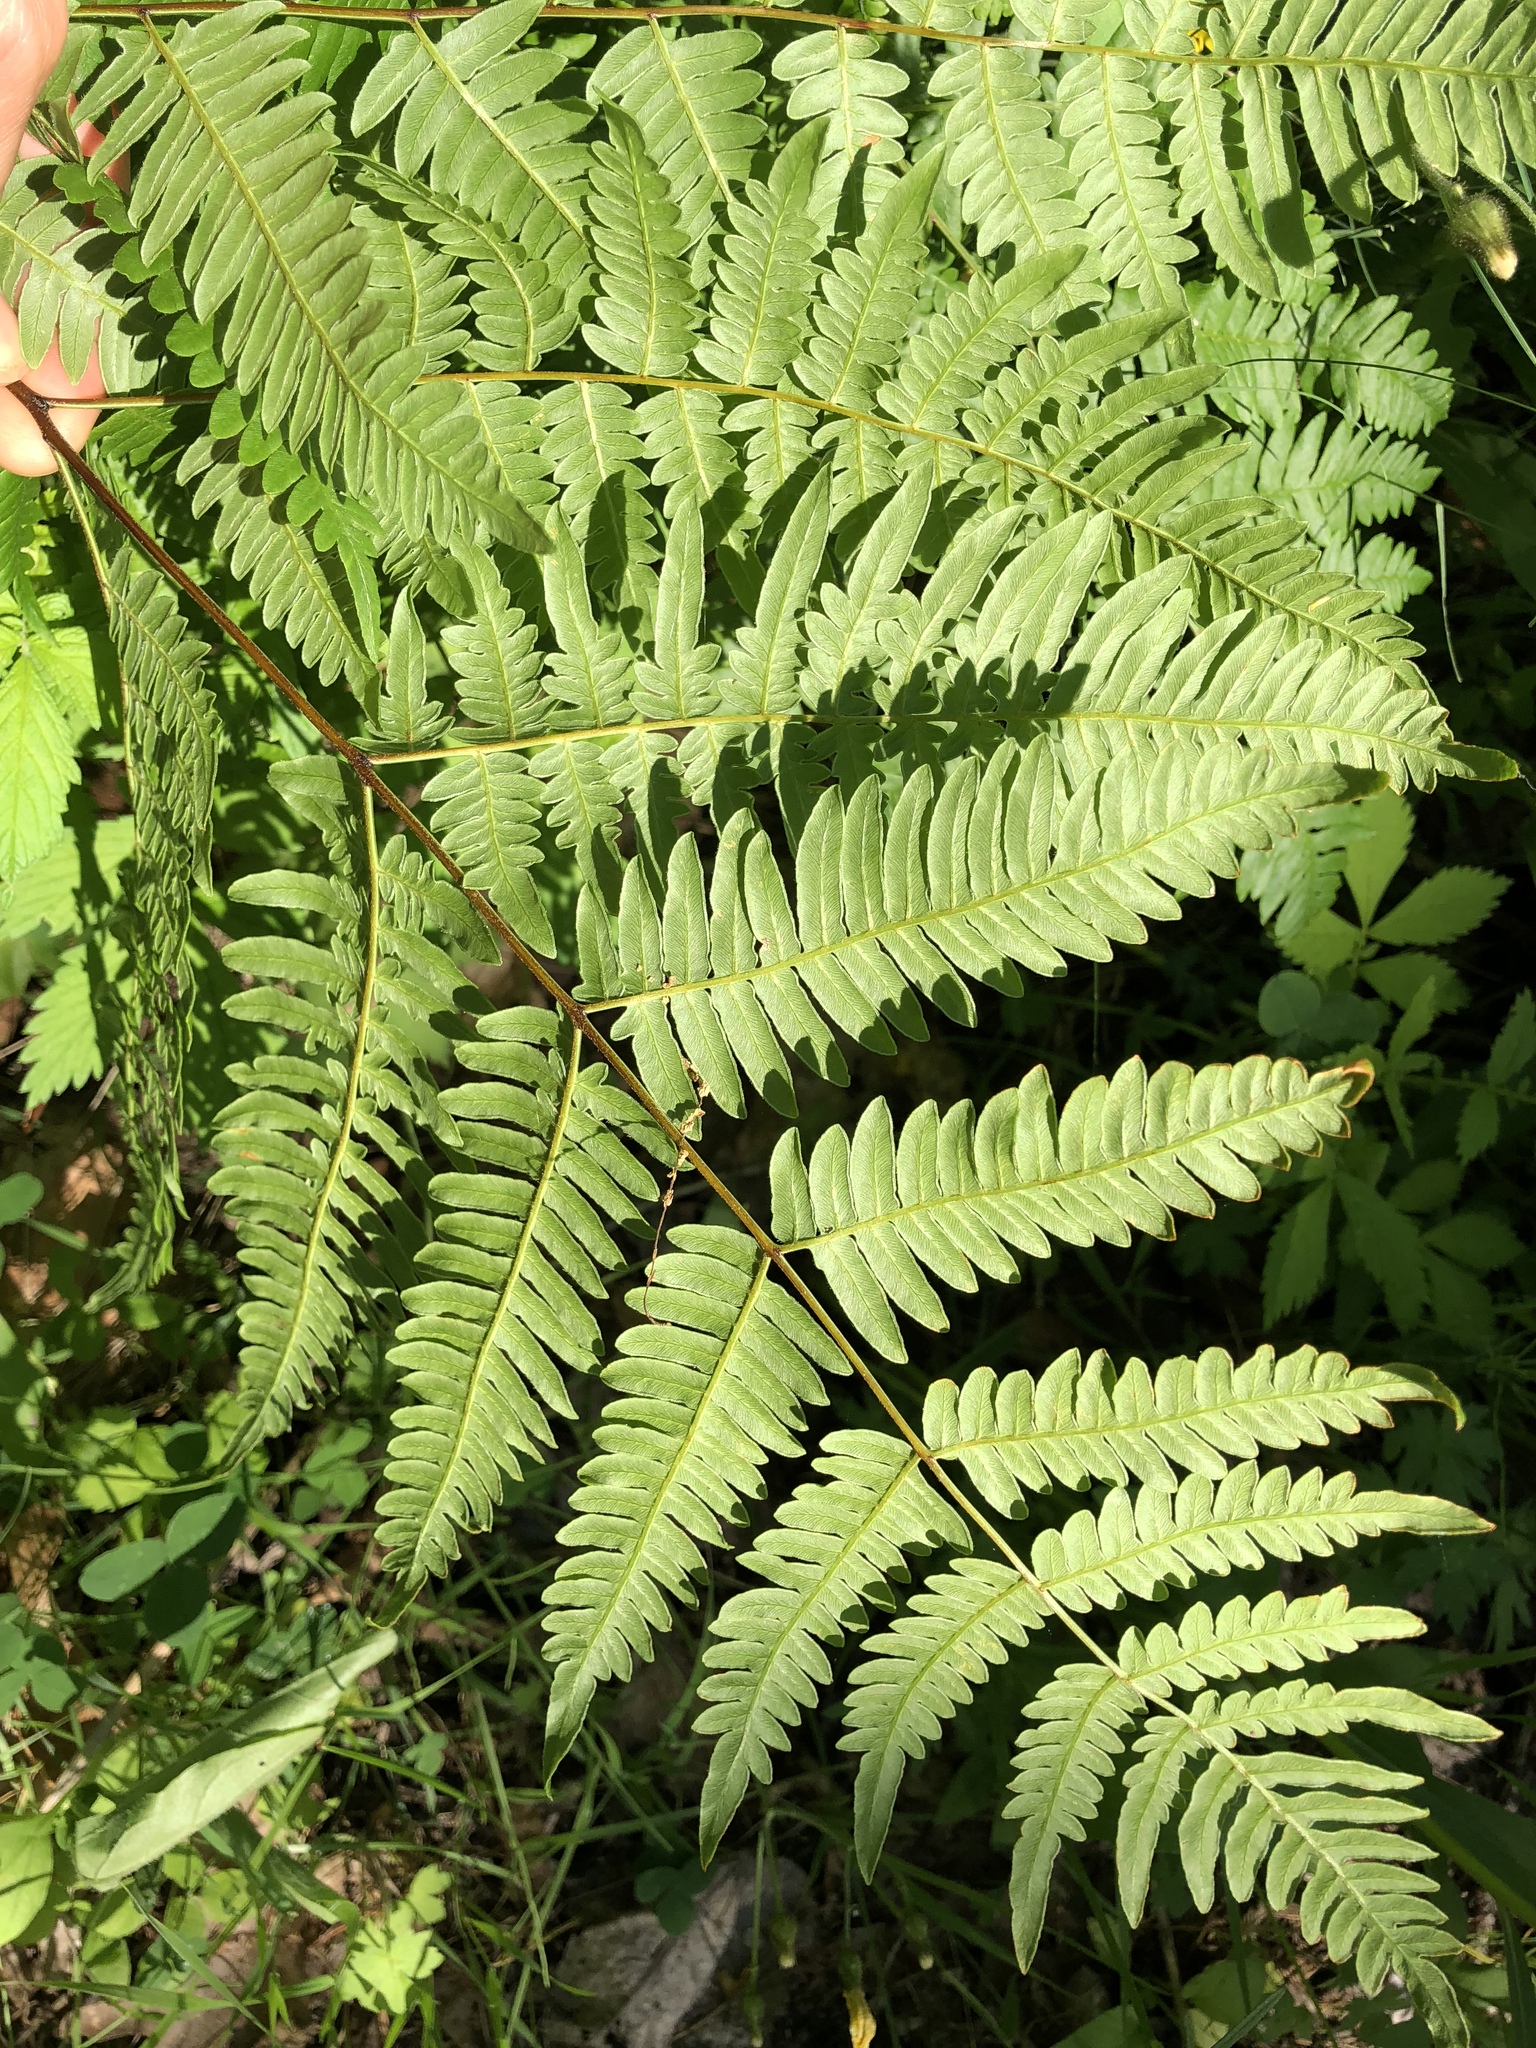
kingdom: Plantae
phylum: Tracheophyta
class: Polypodiopsida
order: Polypodiales
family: Dennstaedtiaceae
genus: Pteridium
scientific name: Pteridium aquilinum
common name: Bracken
